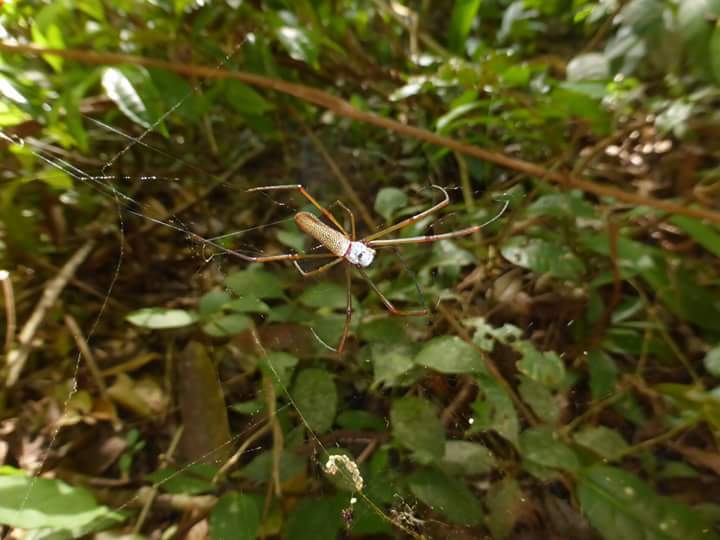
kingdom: Animalia
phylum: Arthropoda
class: Arachnida
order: Araneae
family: Araneidae
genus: Nephila
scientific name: Nephila cornuta
